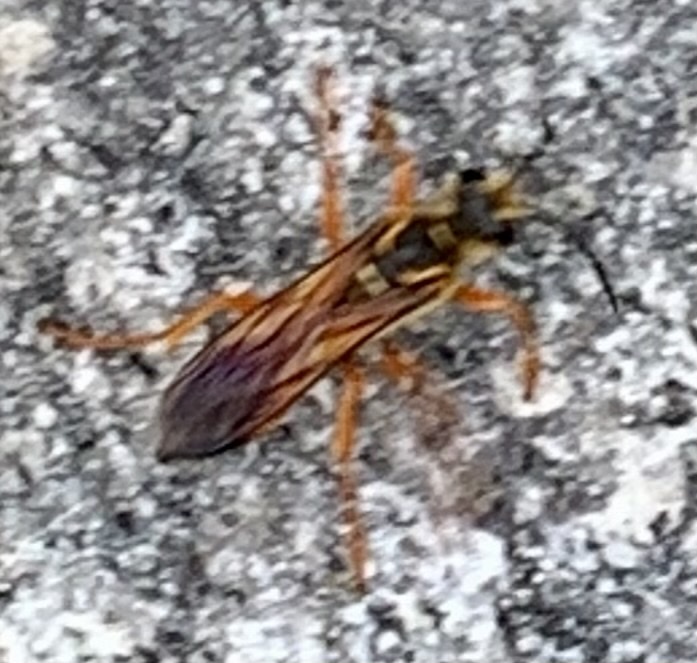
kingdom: Animalia
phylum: Arthropoda
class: Insecta
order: Hymenoptera
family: Sphecidae
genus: Sphex
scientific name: Sphex ichneumoneus
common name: Great golden digger wasp
